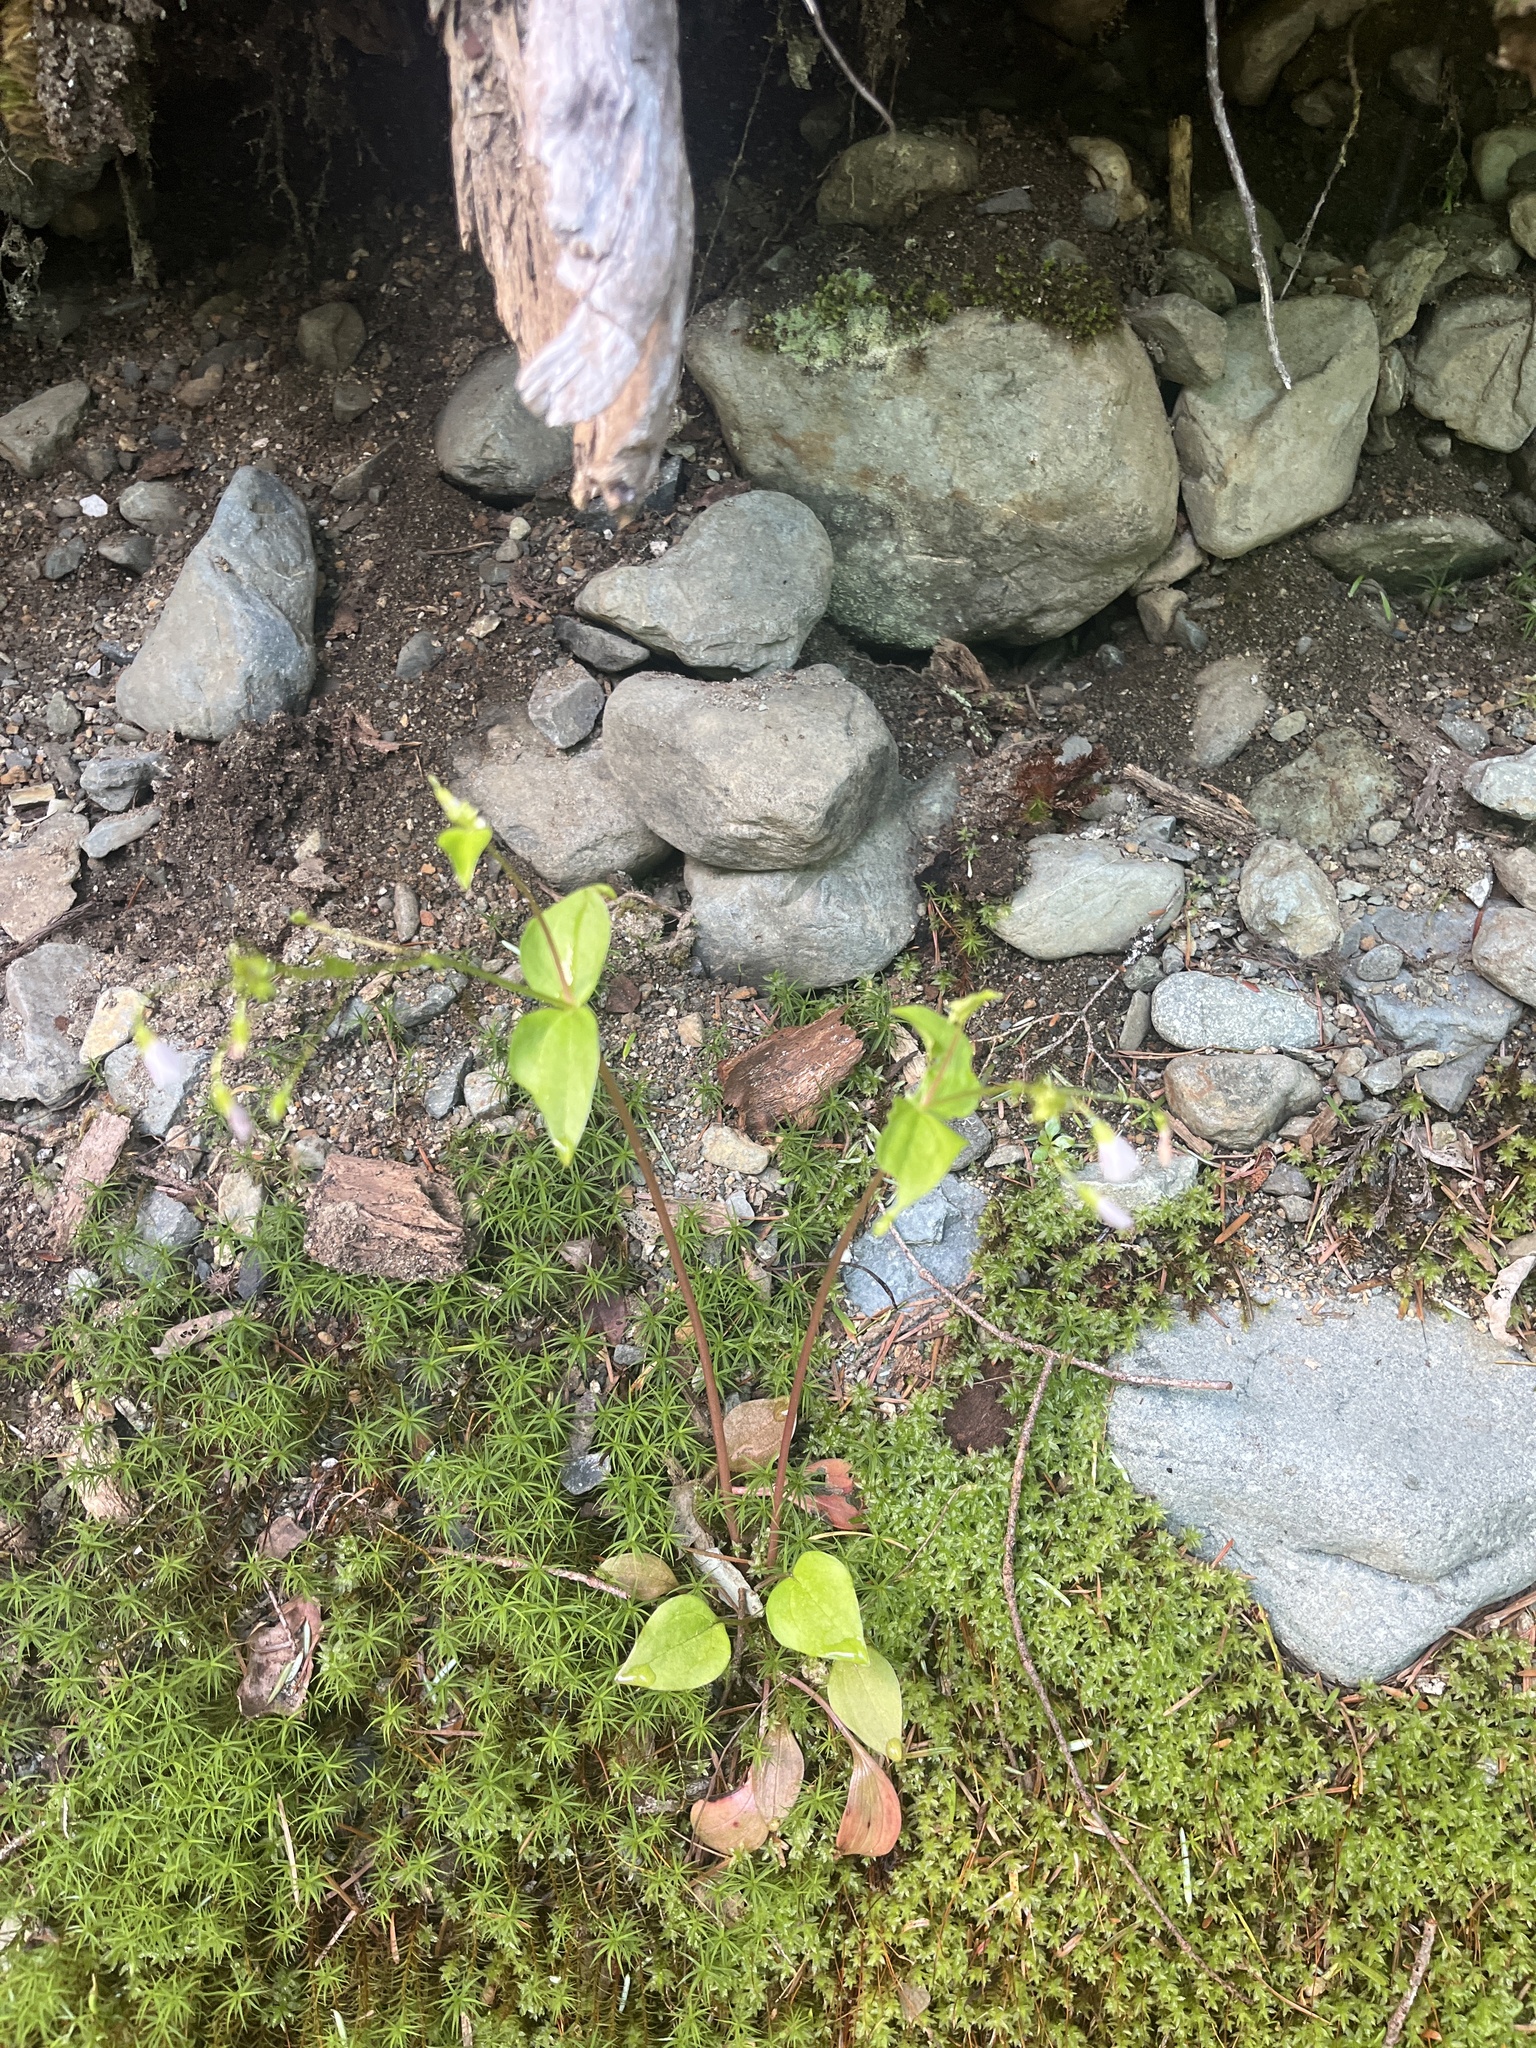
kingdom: Plantae
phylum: Tracheophyta
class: Magnoliopsida
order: Caryophyllales
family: Montiaceae
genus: Claytonia
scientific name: Claytonia sibirica
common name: Pink purslane
